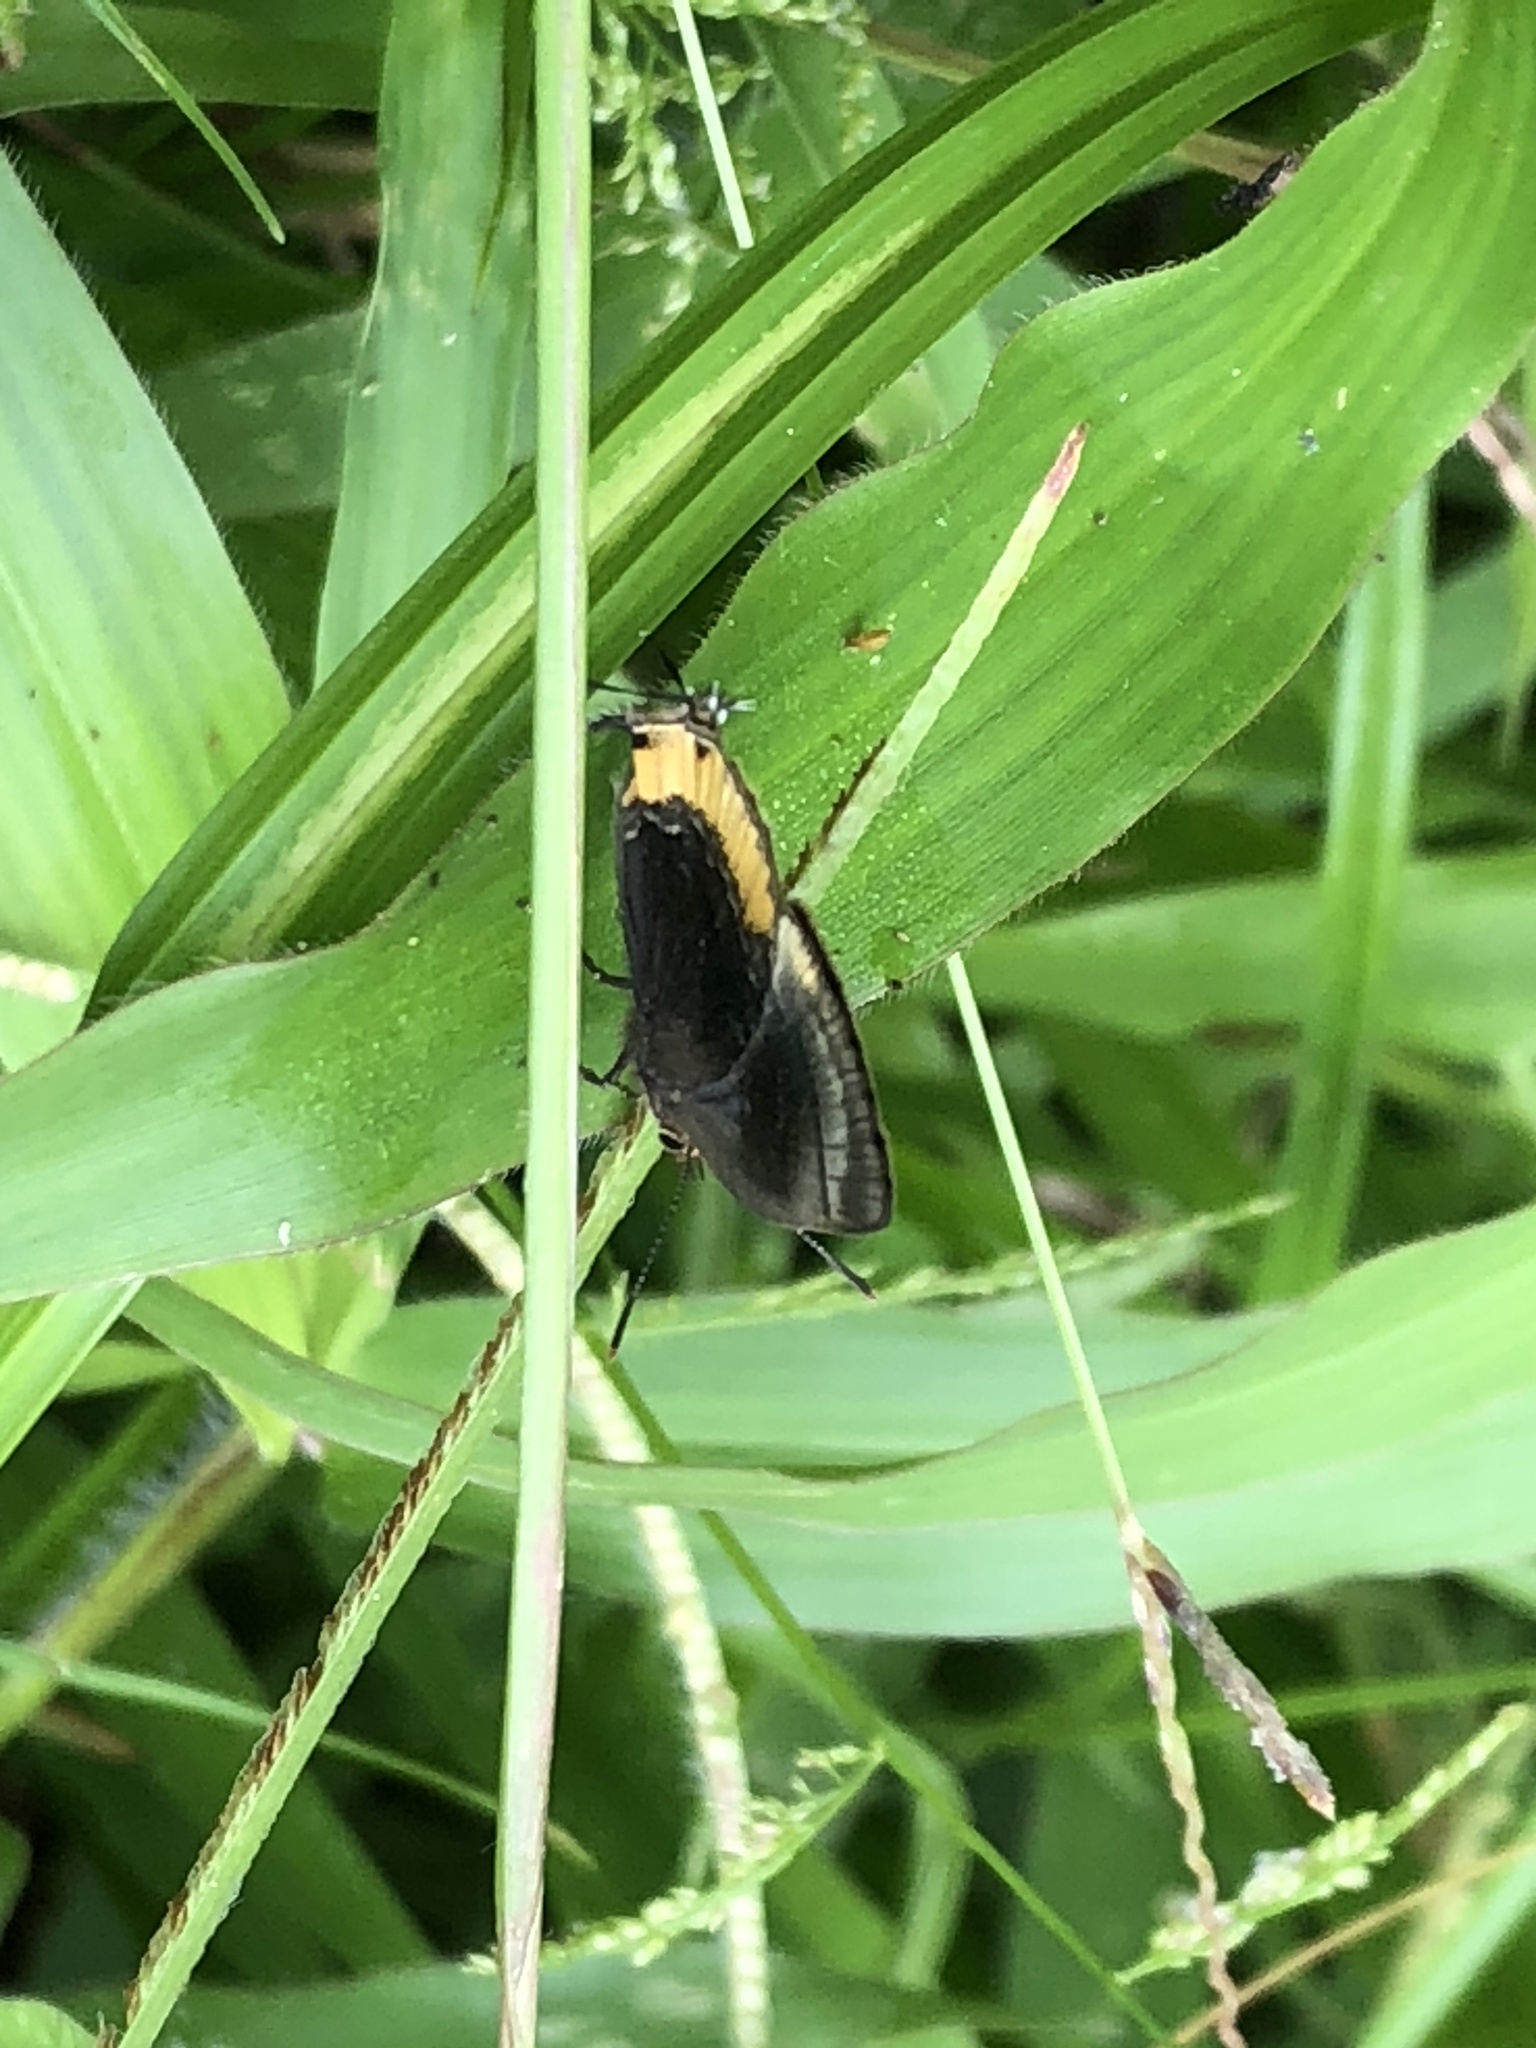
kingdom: Animalia
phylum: Arthropoda
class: Insecta
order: Lepidoptera
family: Lycaenidae
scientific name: Lycaenidae
